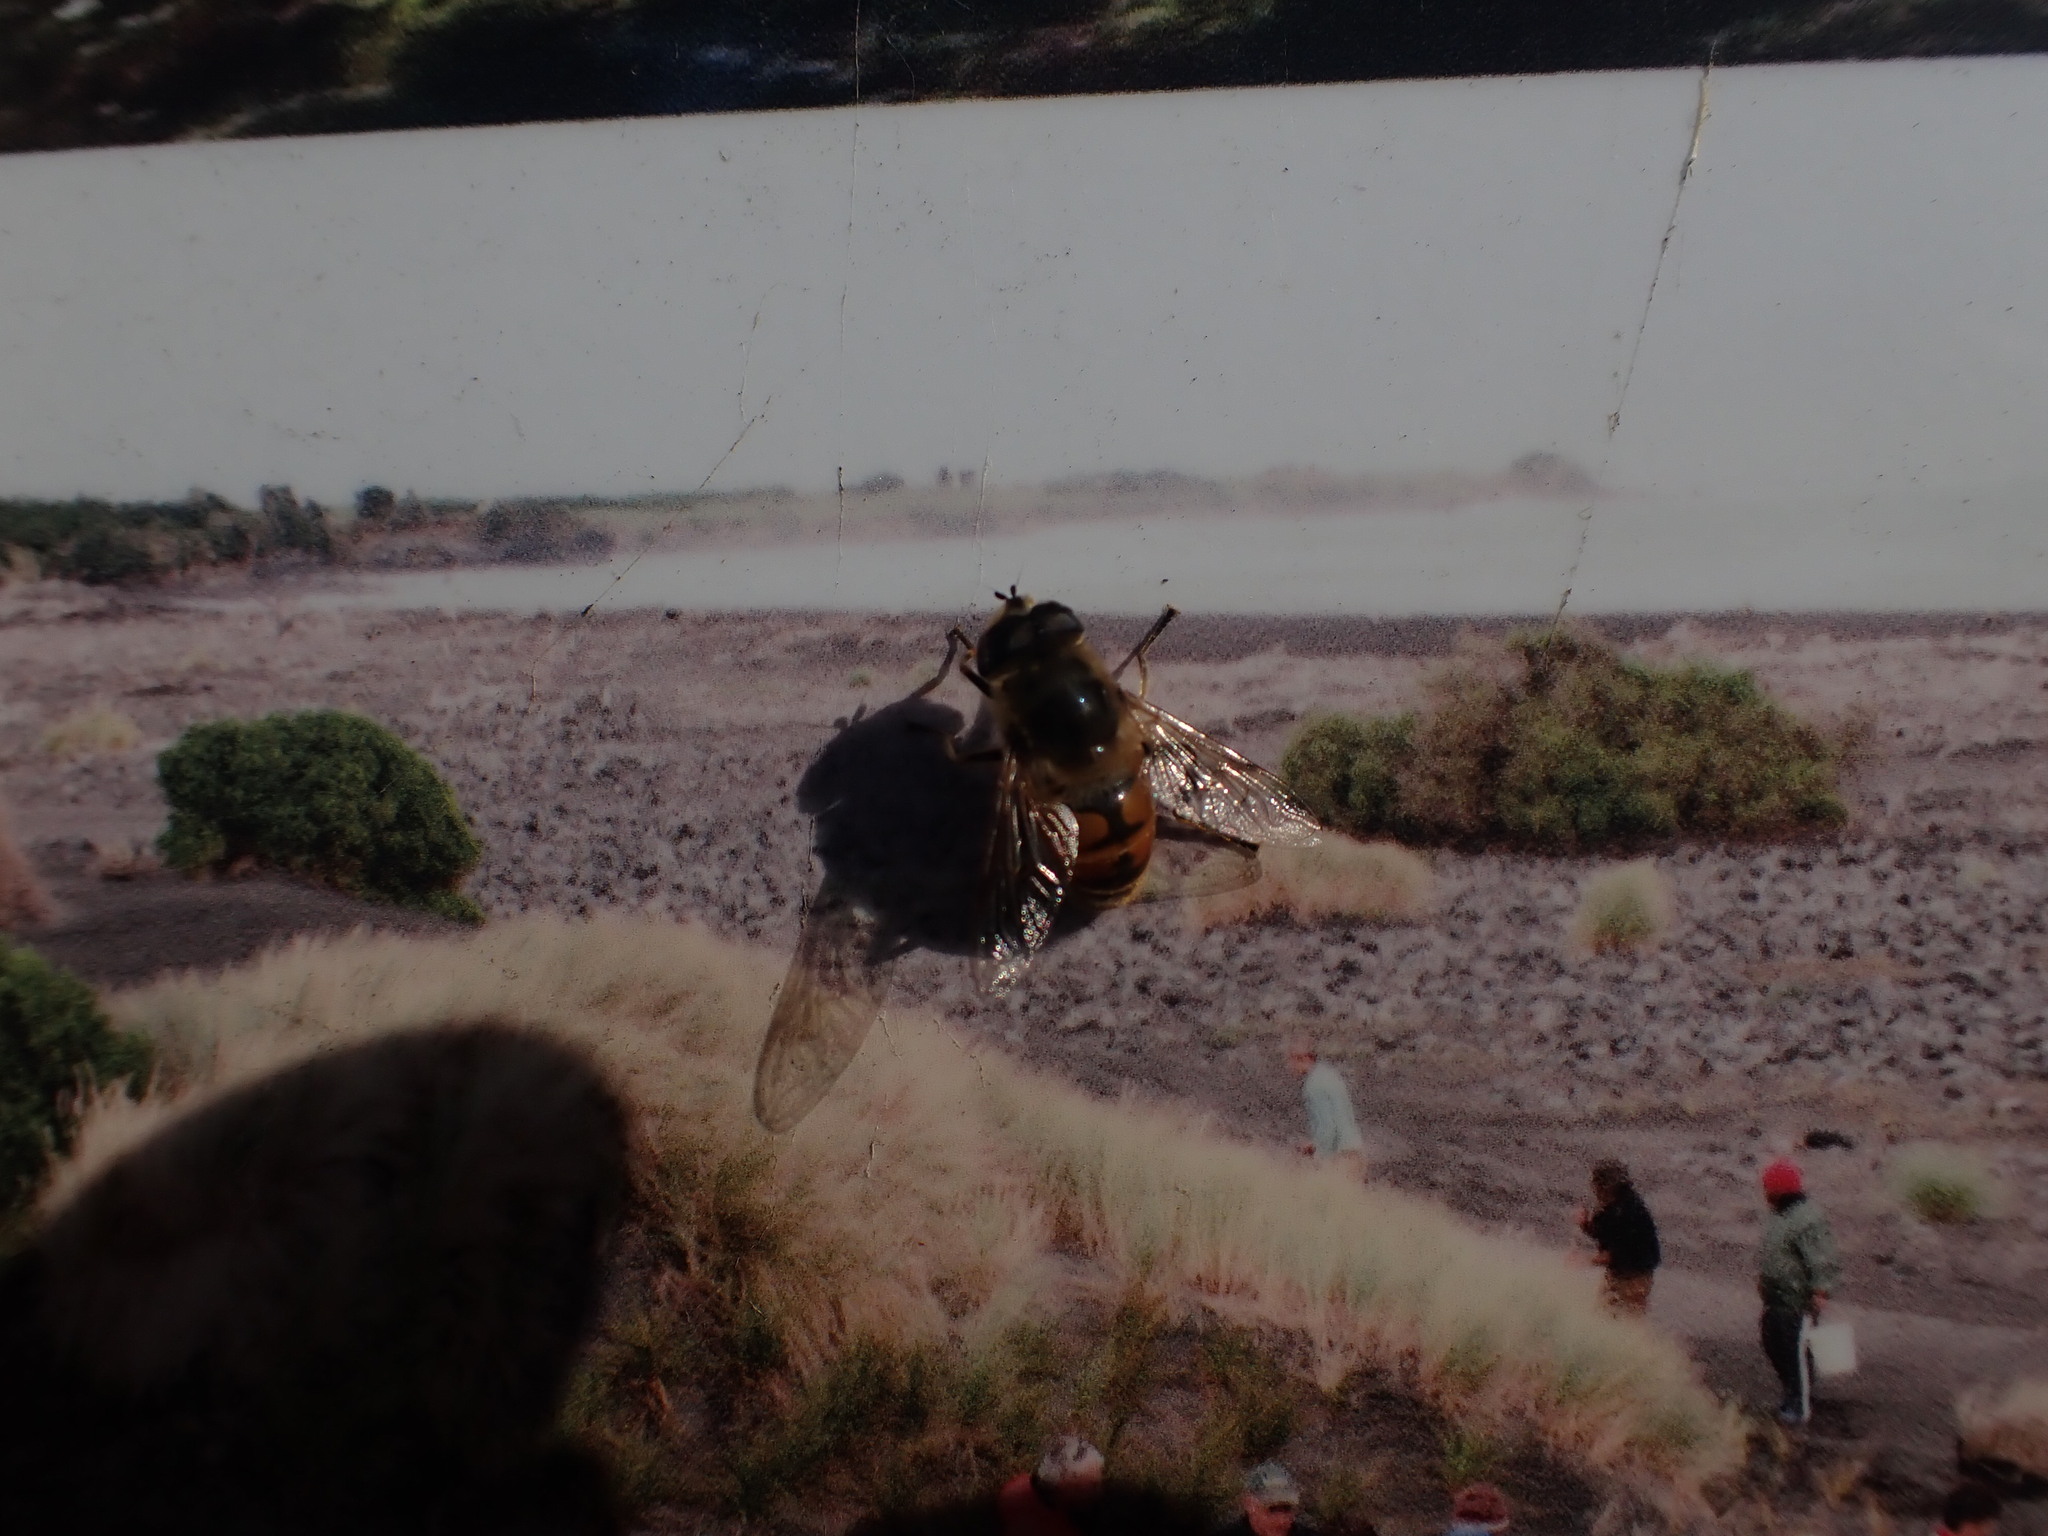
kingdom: Animalia
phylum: Arthropoda
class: Insecta
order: Diptera
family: Syrphidae
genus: Eristalis
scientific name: Eristalis tenax
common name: Drone fly
